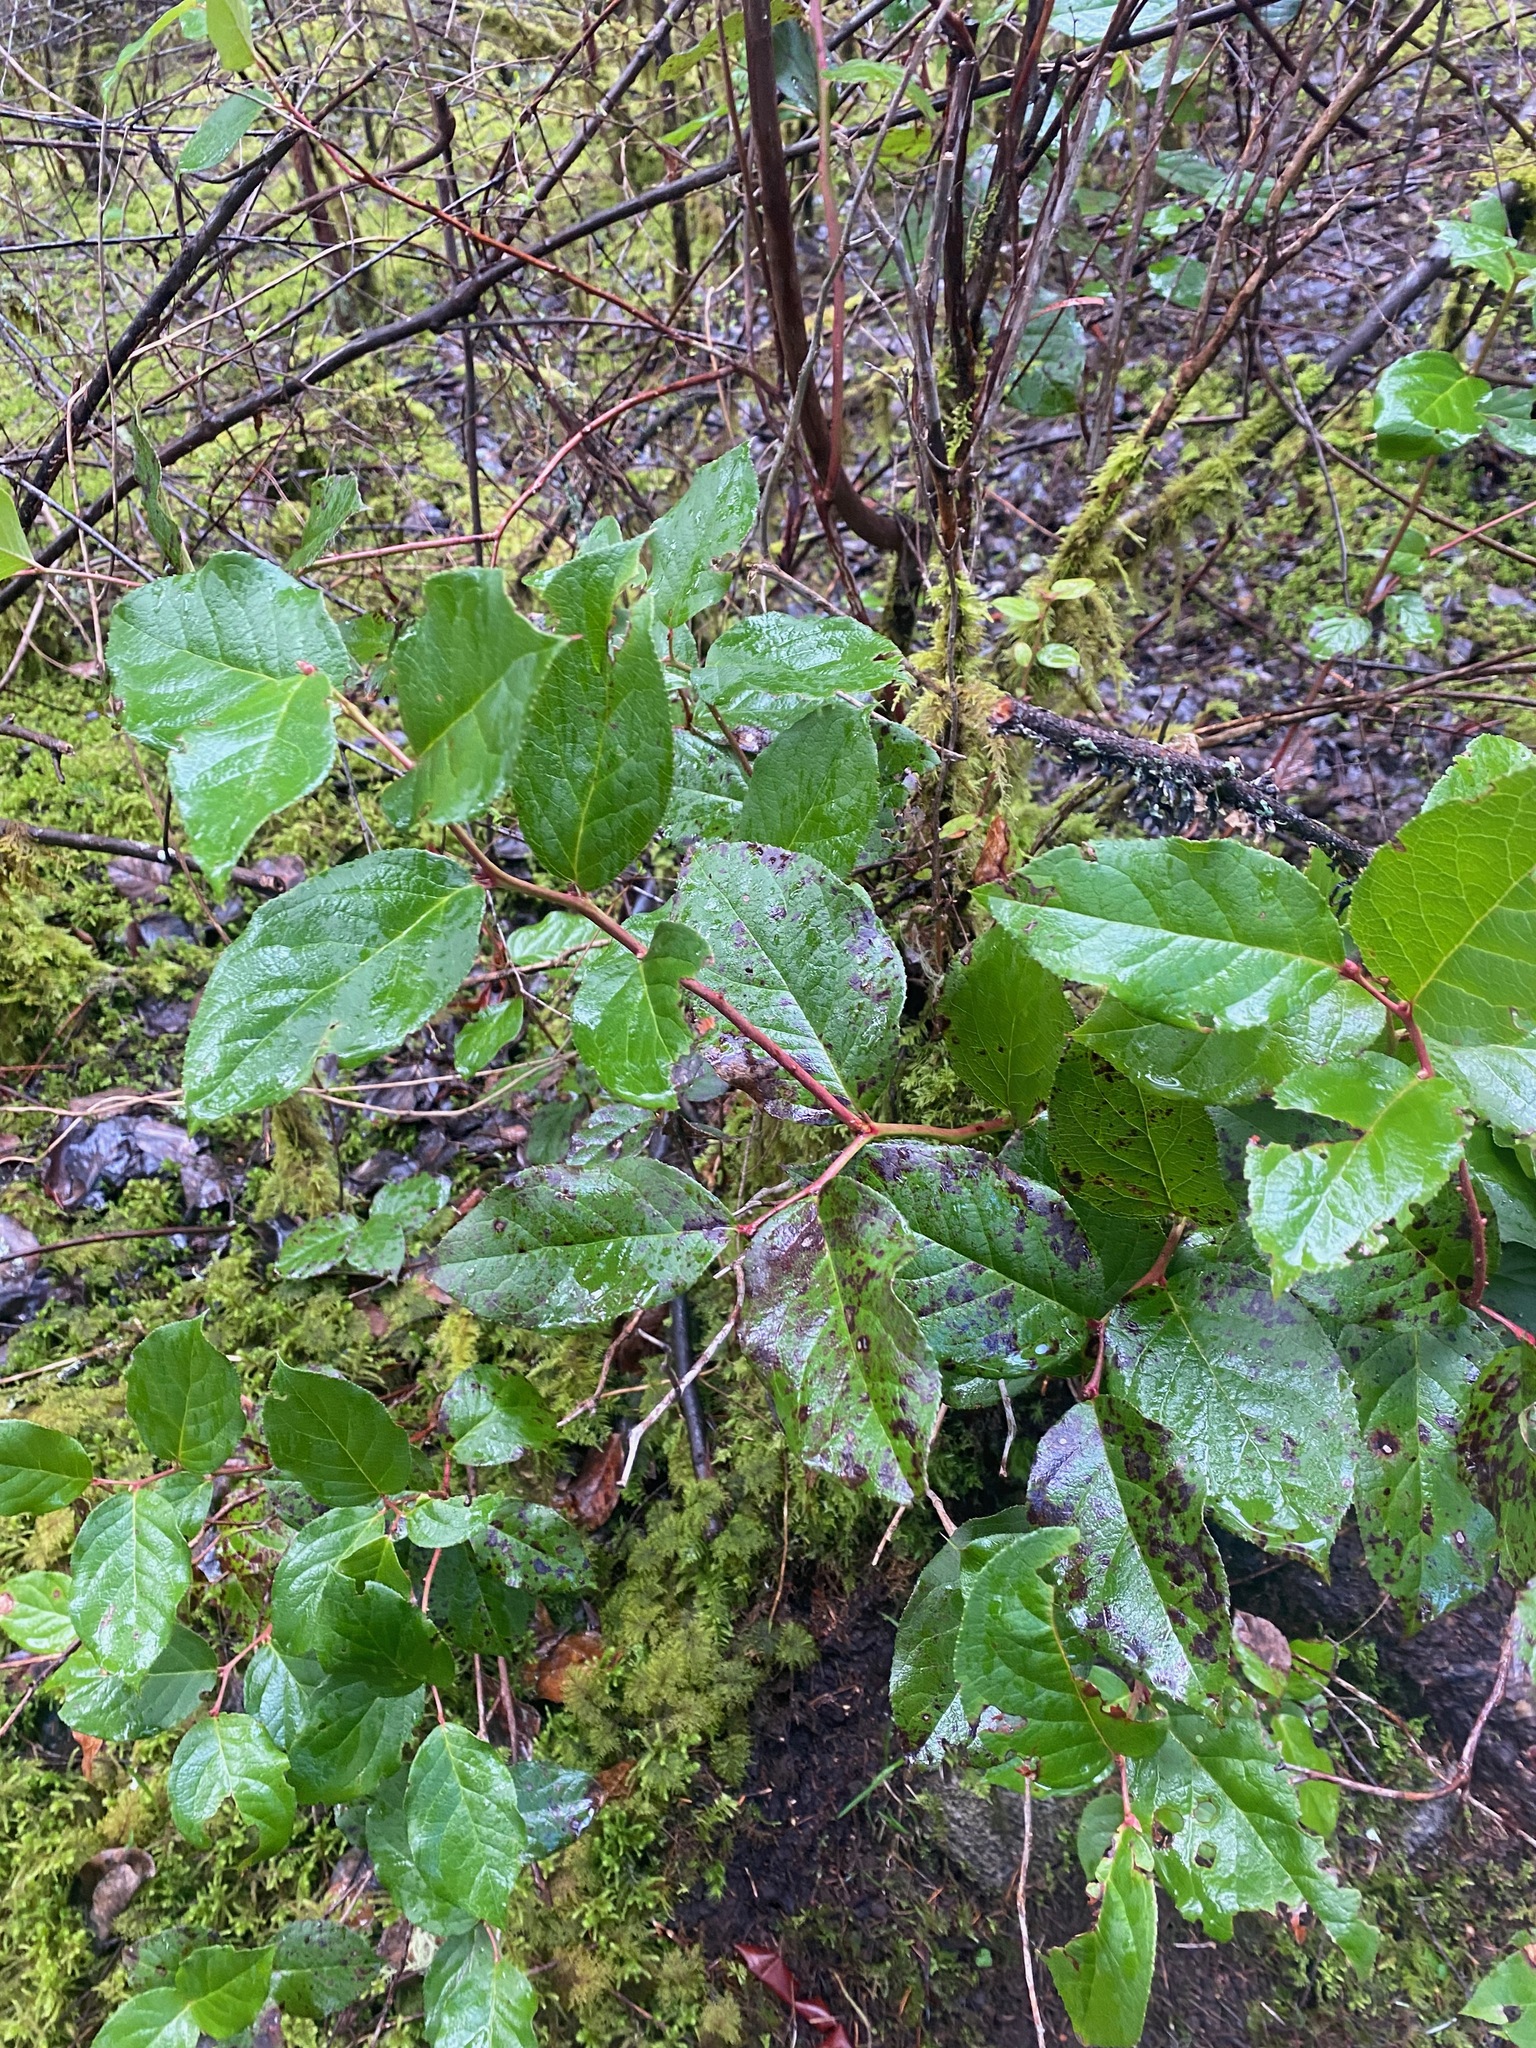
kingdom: Plantae
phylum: Tracheophyta
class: Magnoliopsida
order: Ericales
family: Ericaceae
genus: Gaultheria
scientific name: Gaultheria shallon
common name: Shallon
